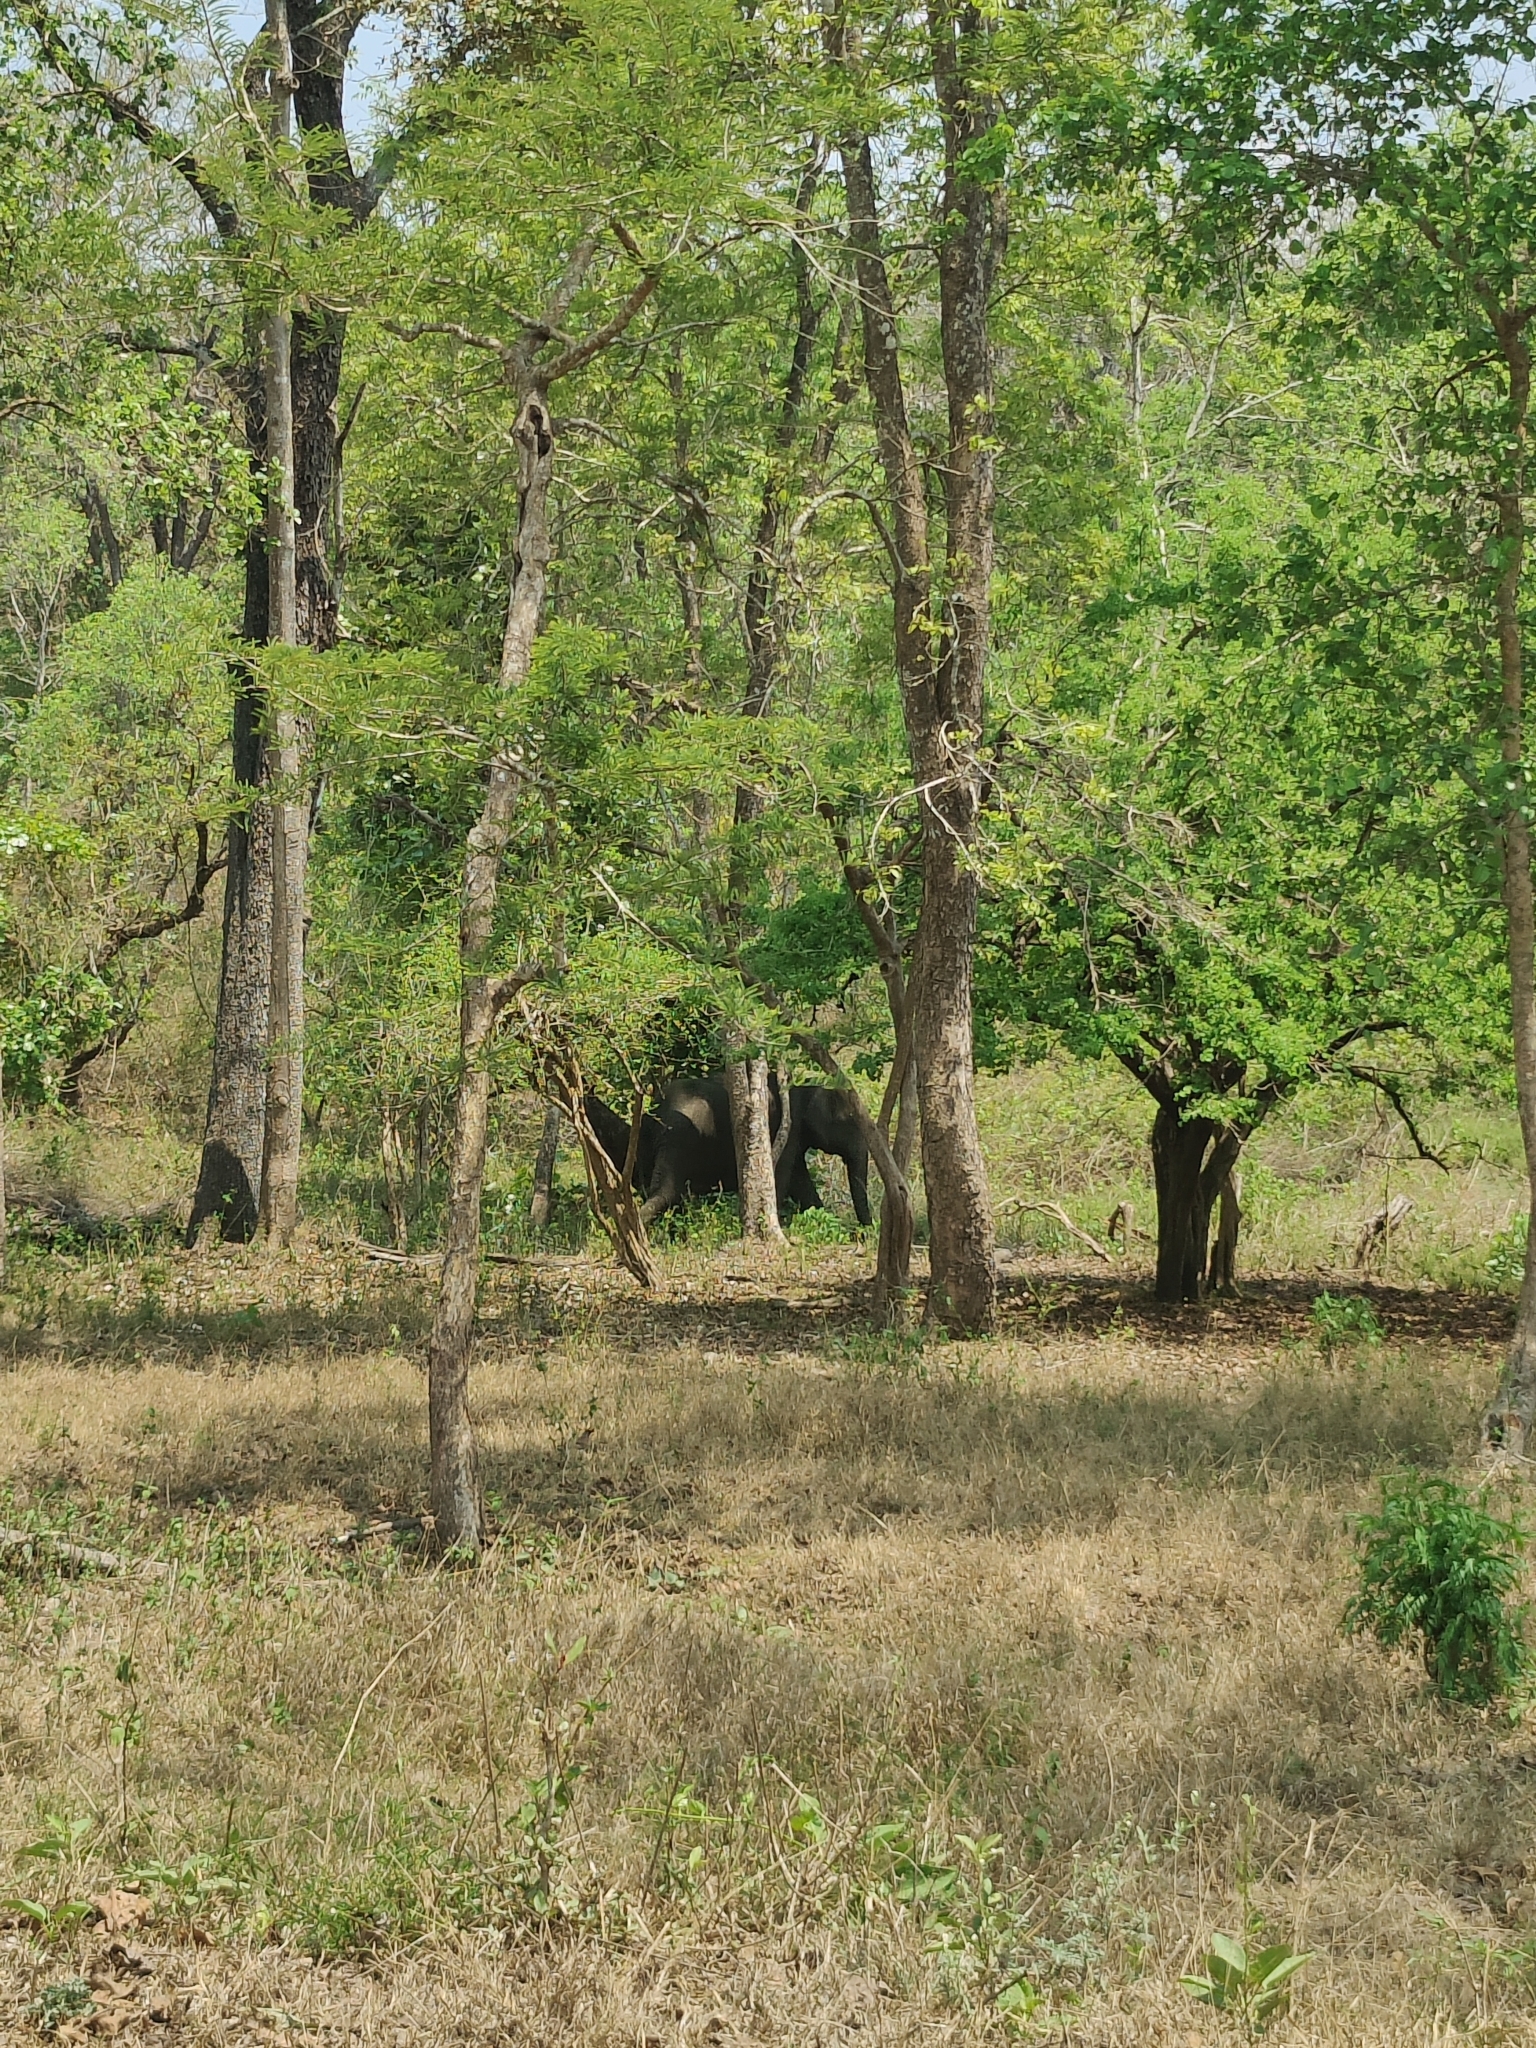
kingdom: Animalia
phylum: Chordata
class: Mammalia
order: Proboscidea
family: Elephantidae
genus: Elephas
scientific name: Elephas maximus
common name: Asian elephant
